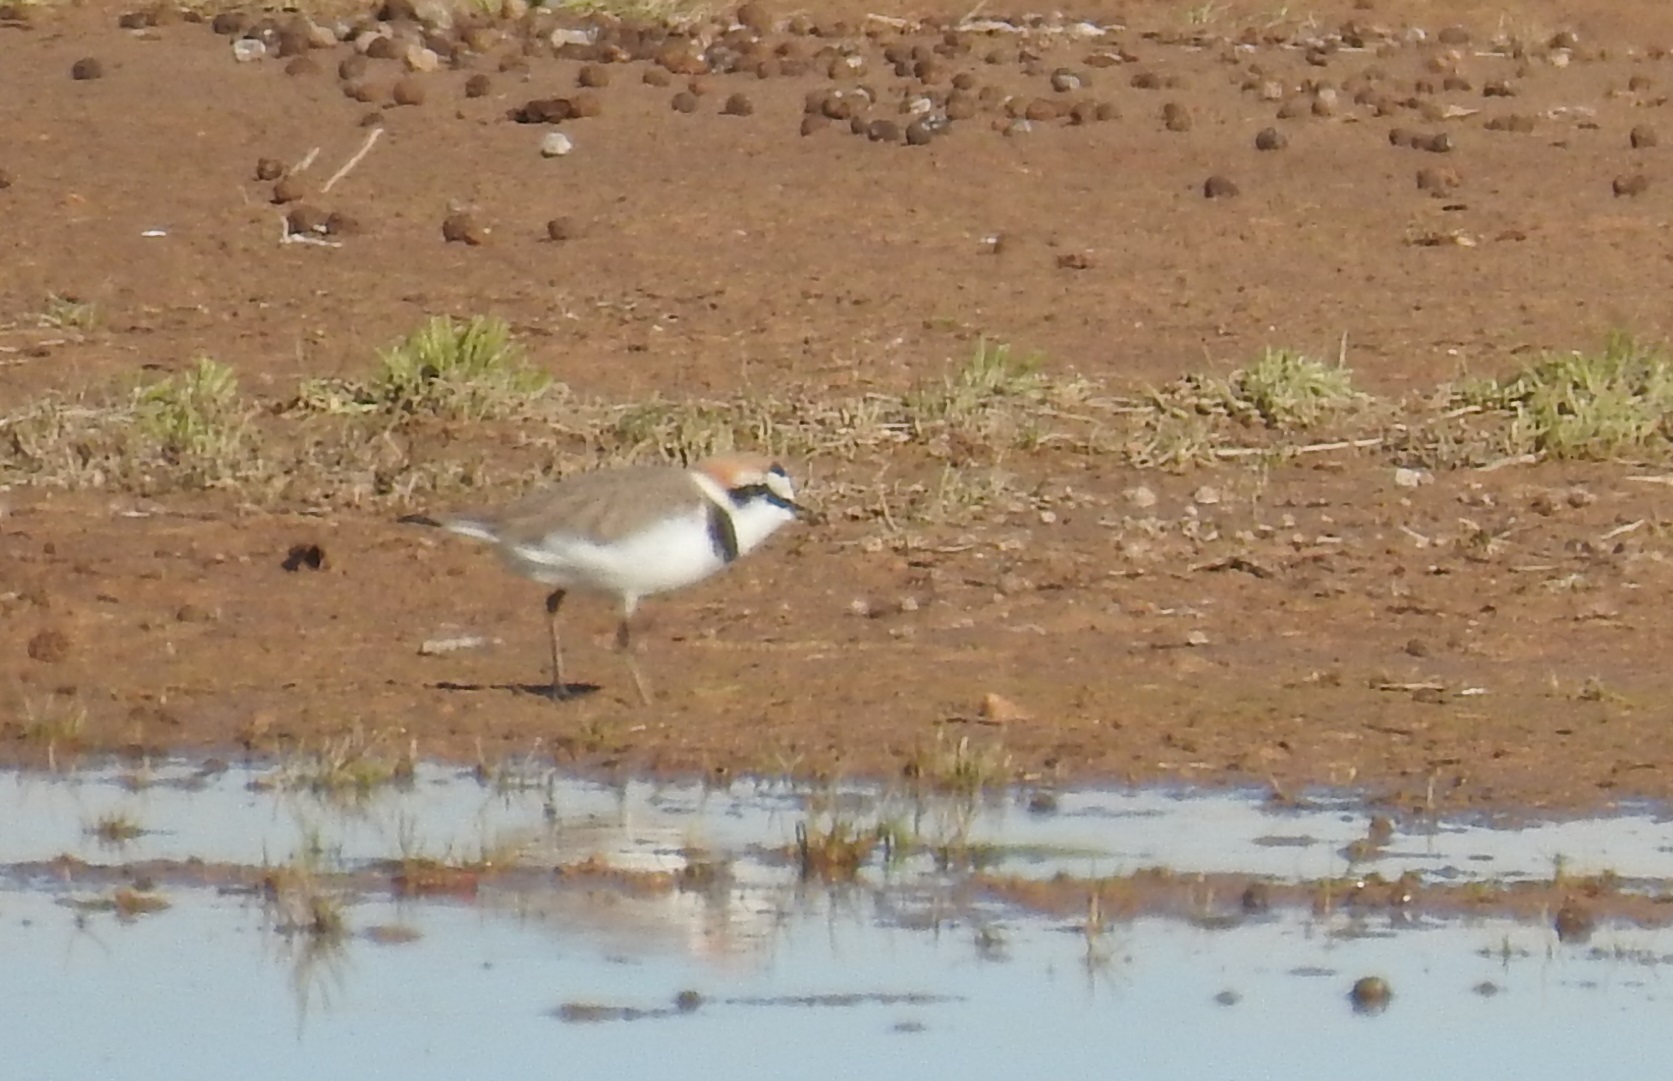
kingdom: Animalia
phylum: Chordata
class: Aves
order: Charadriiformes
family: Charadriidae
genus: Charadrius
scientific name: Charadrius alexandrinus
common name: Kentish plover
